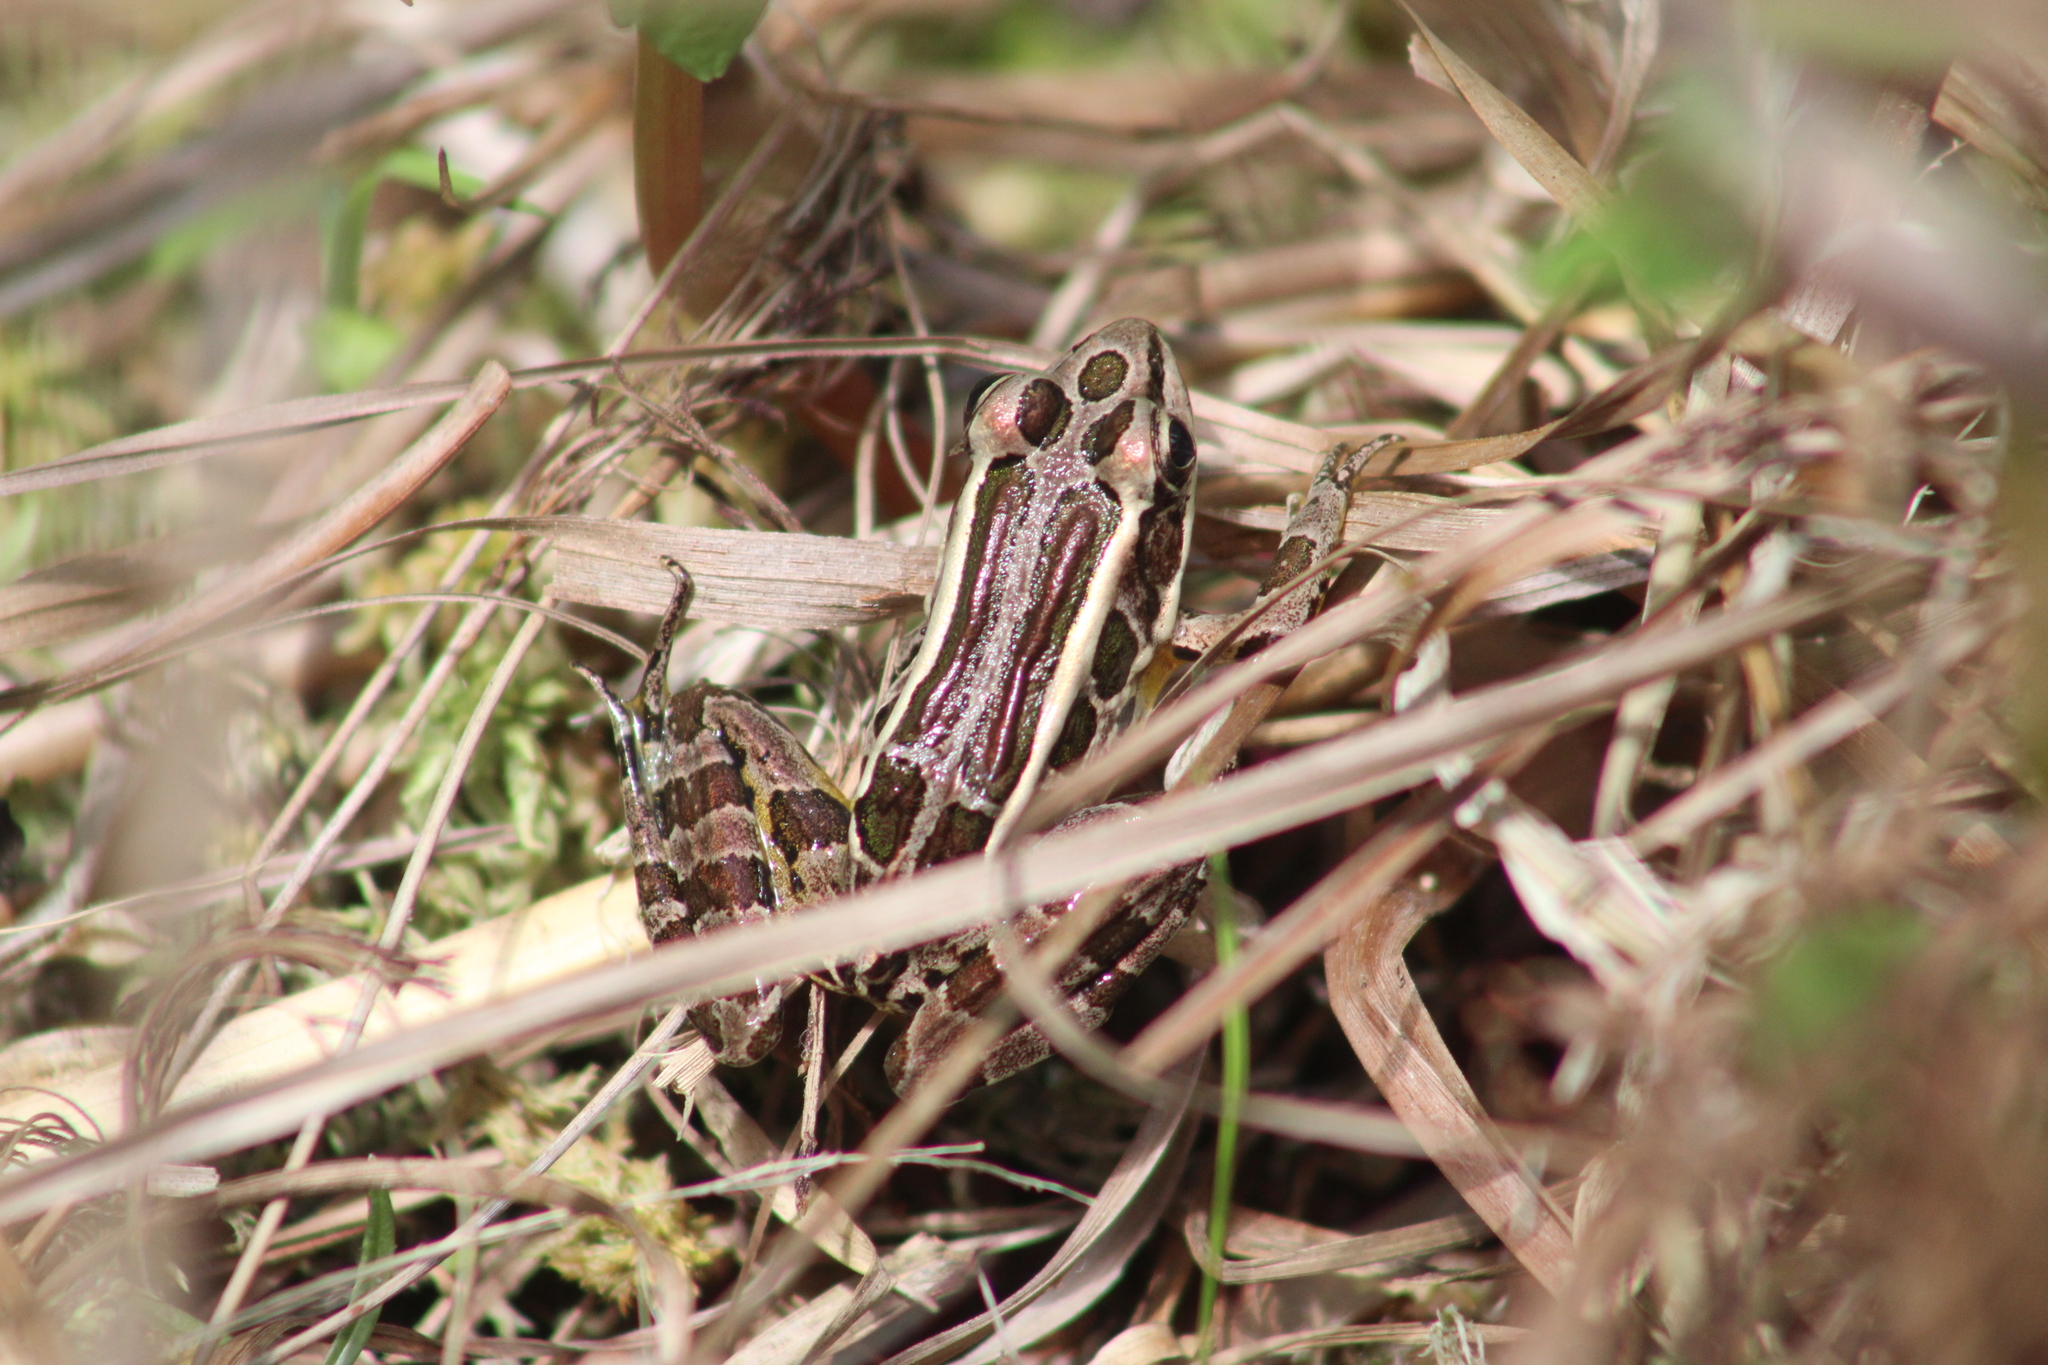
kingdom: Animalia
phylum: Chordata
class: Amphibia
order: Anura
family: Ranidae
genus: Lithobates
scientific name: Lithobates palustris
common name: Pickerel frog
